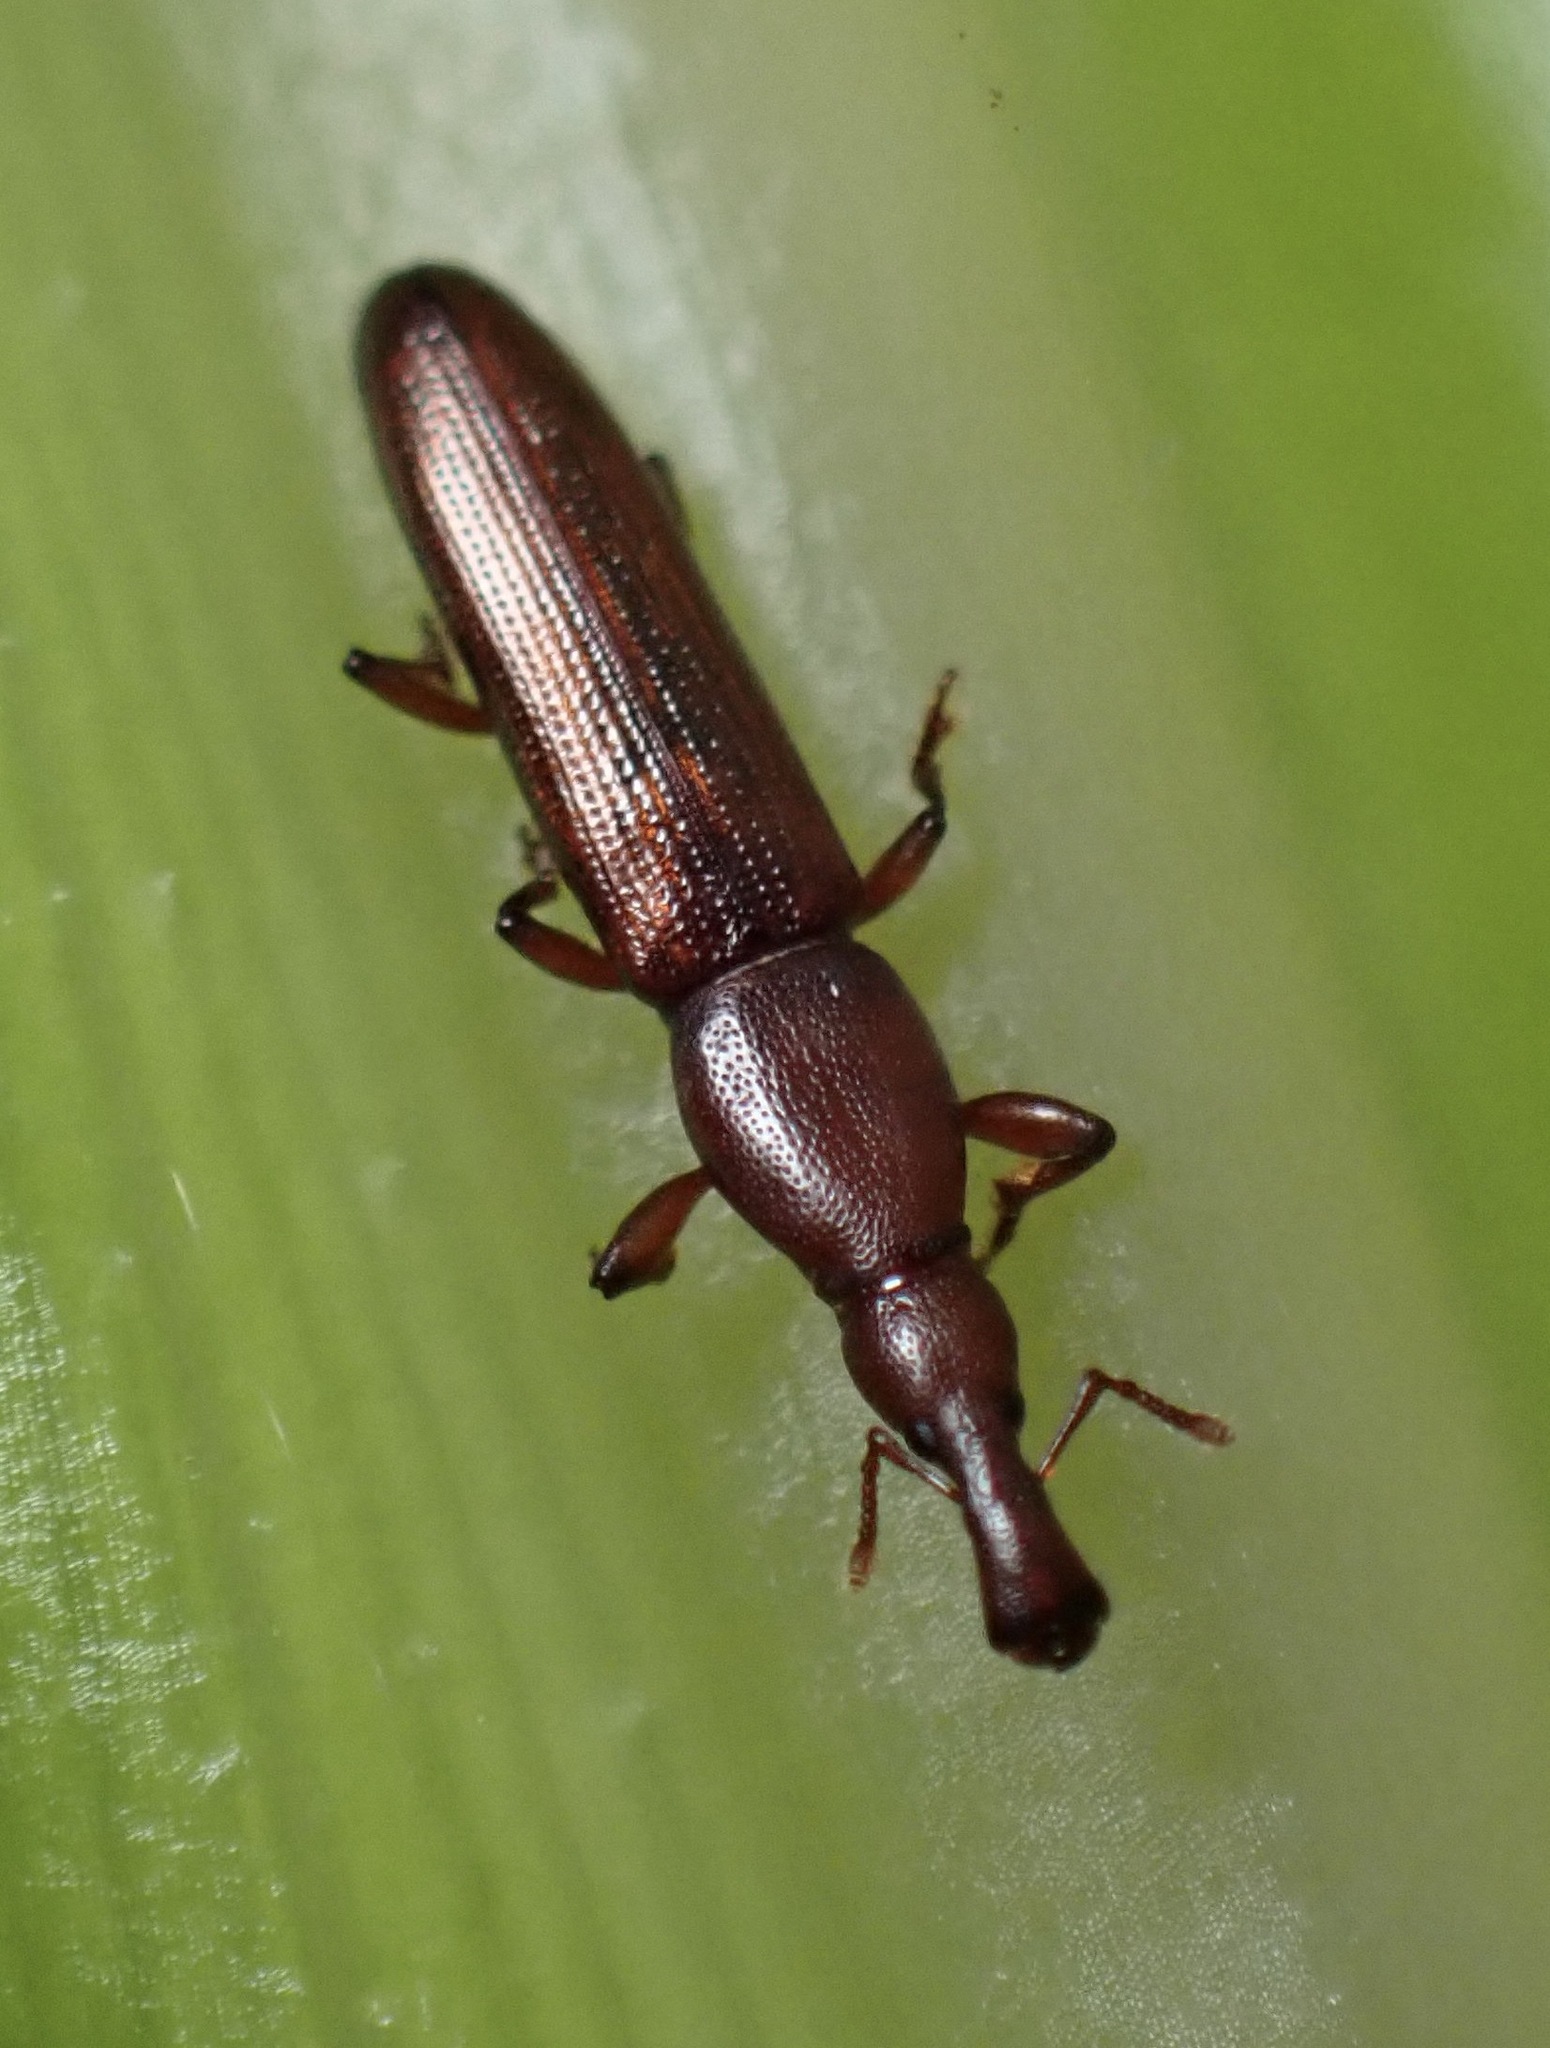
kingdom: Animalia
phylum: Arthropoda
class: Insecta
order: Coleoptera
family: Curculionidae
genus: Stenotrupis
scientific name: Stenotrupis prolixa
